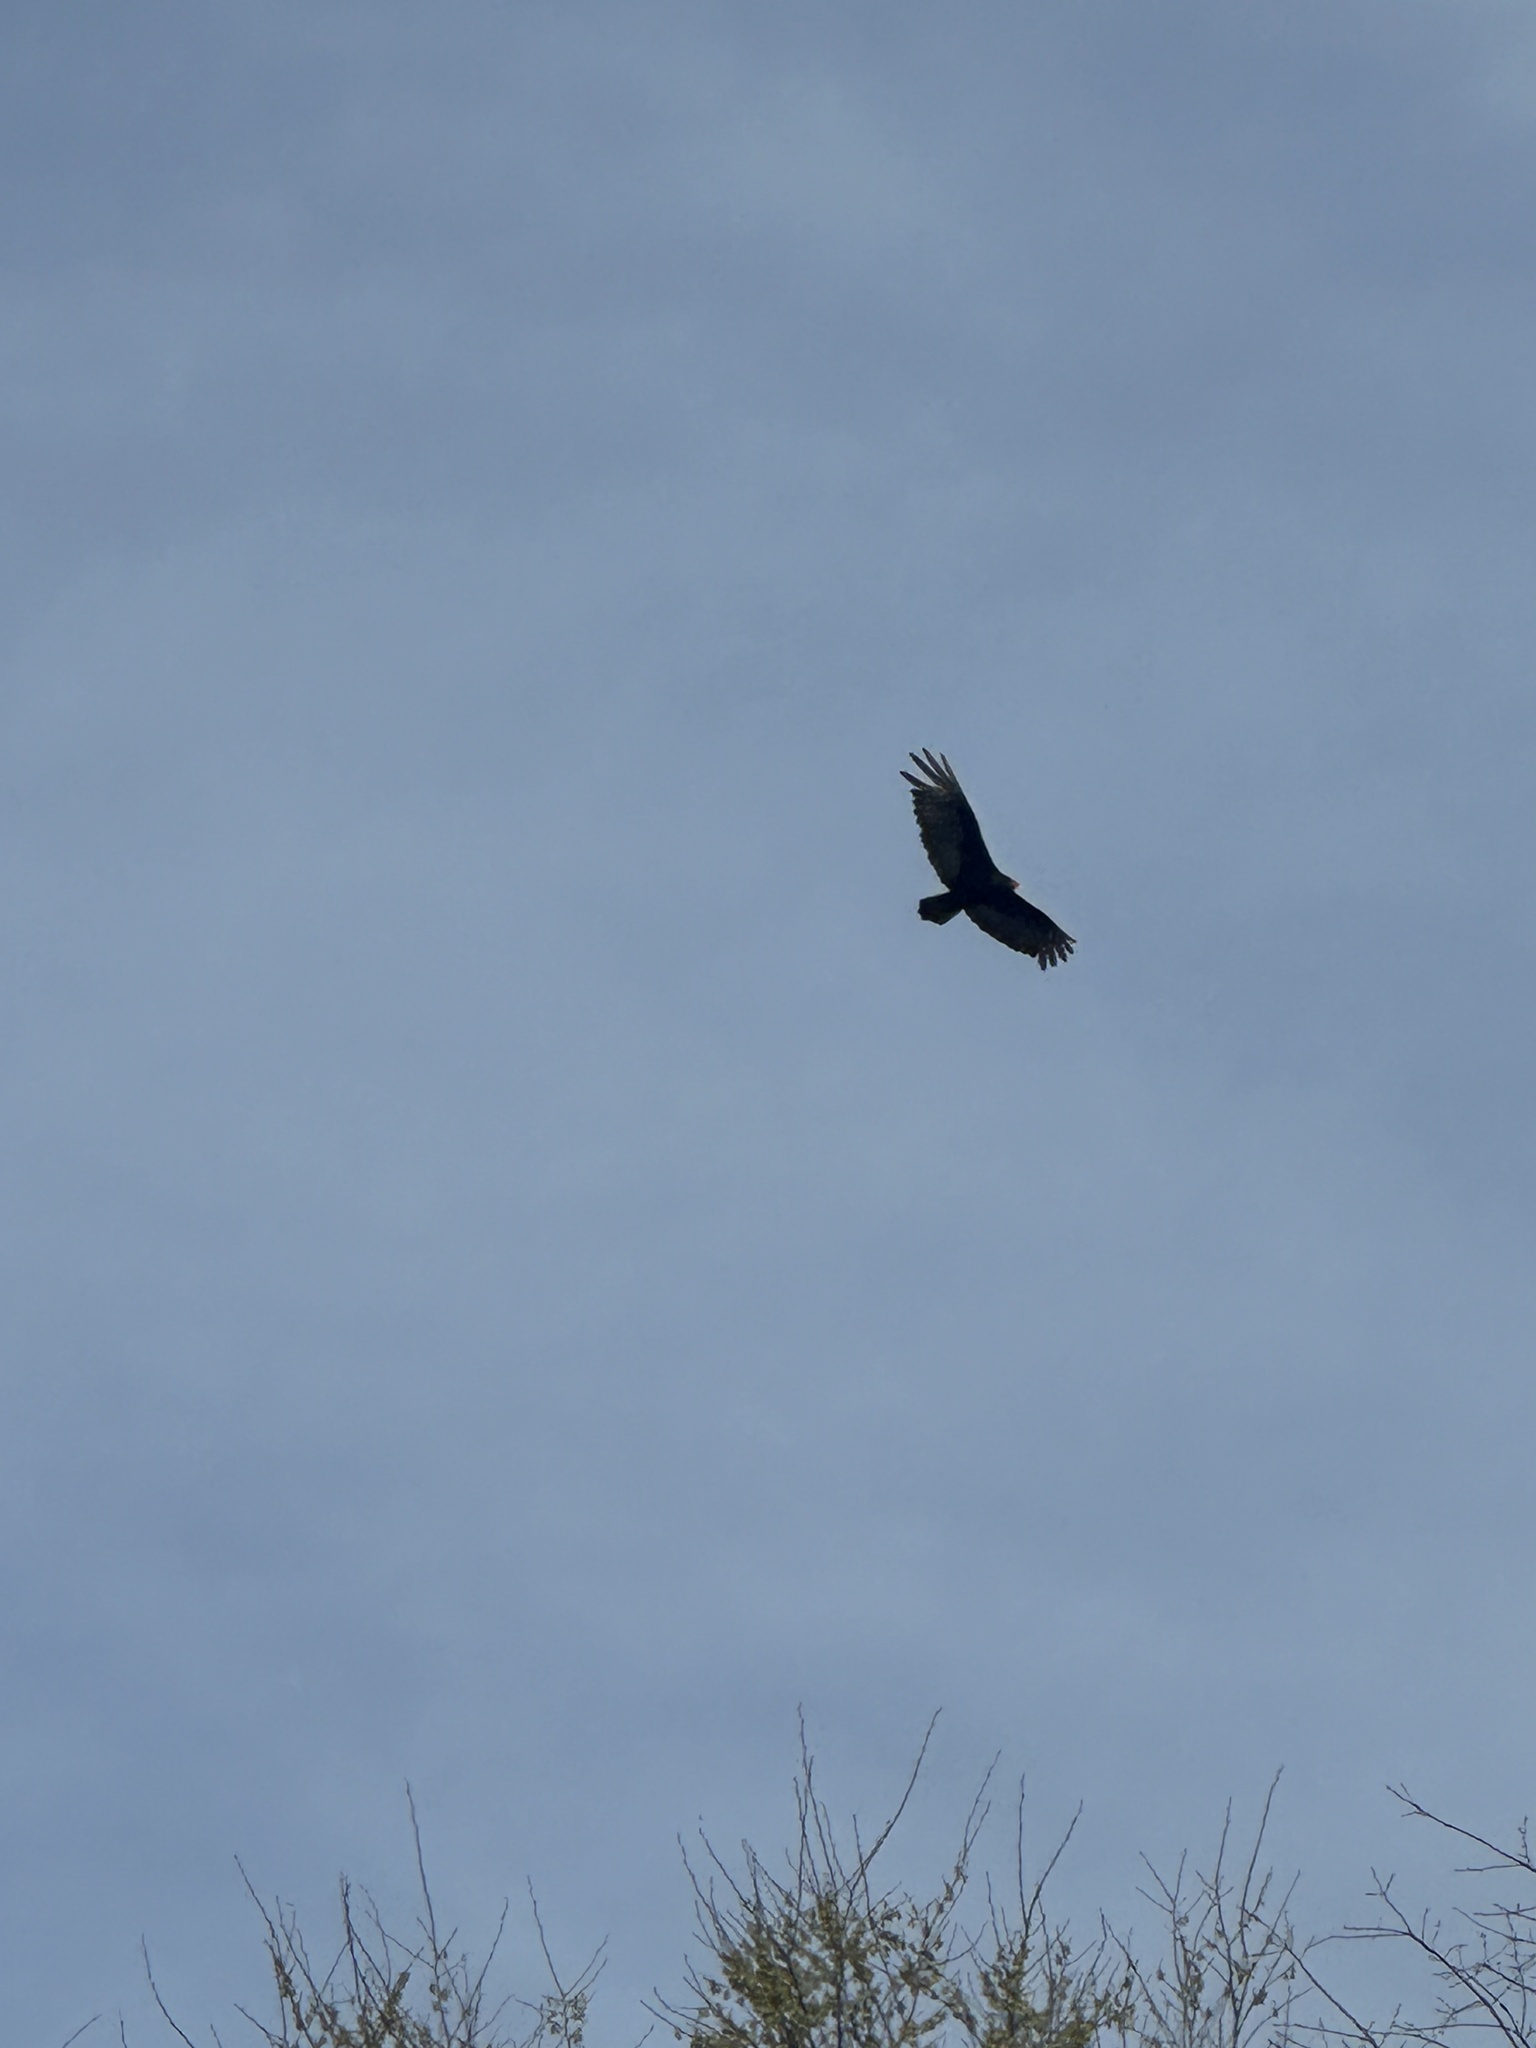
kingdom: Animalia
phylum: Chordata
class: Aves
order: Accipitriformes
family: Cathartidae
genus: Cathartes
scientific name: Cathartes aura
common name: Turkey vulture
